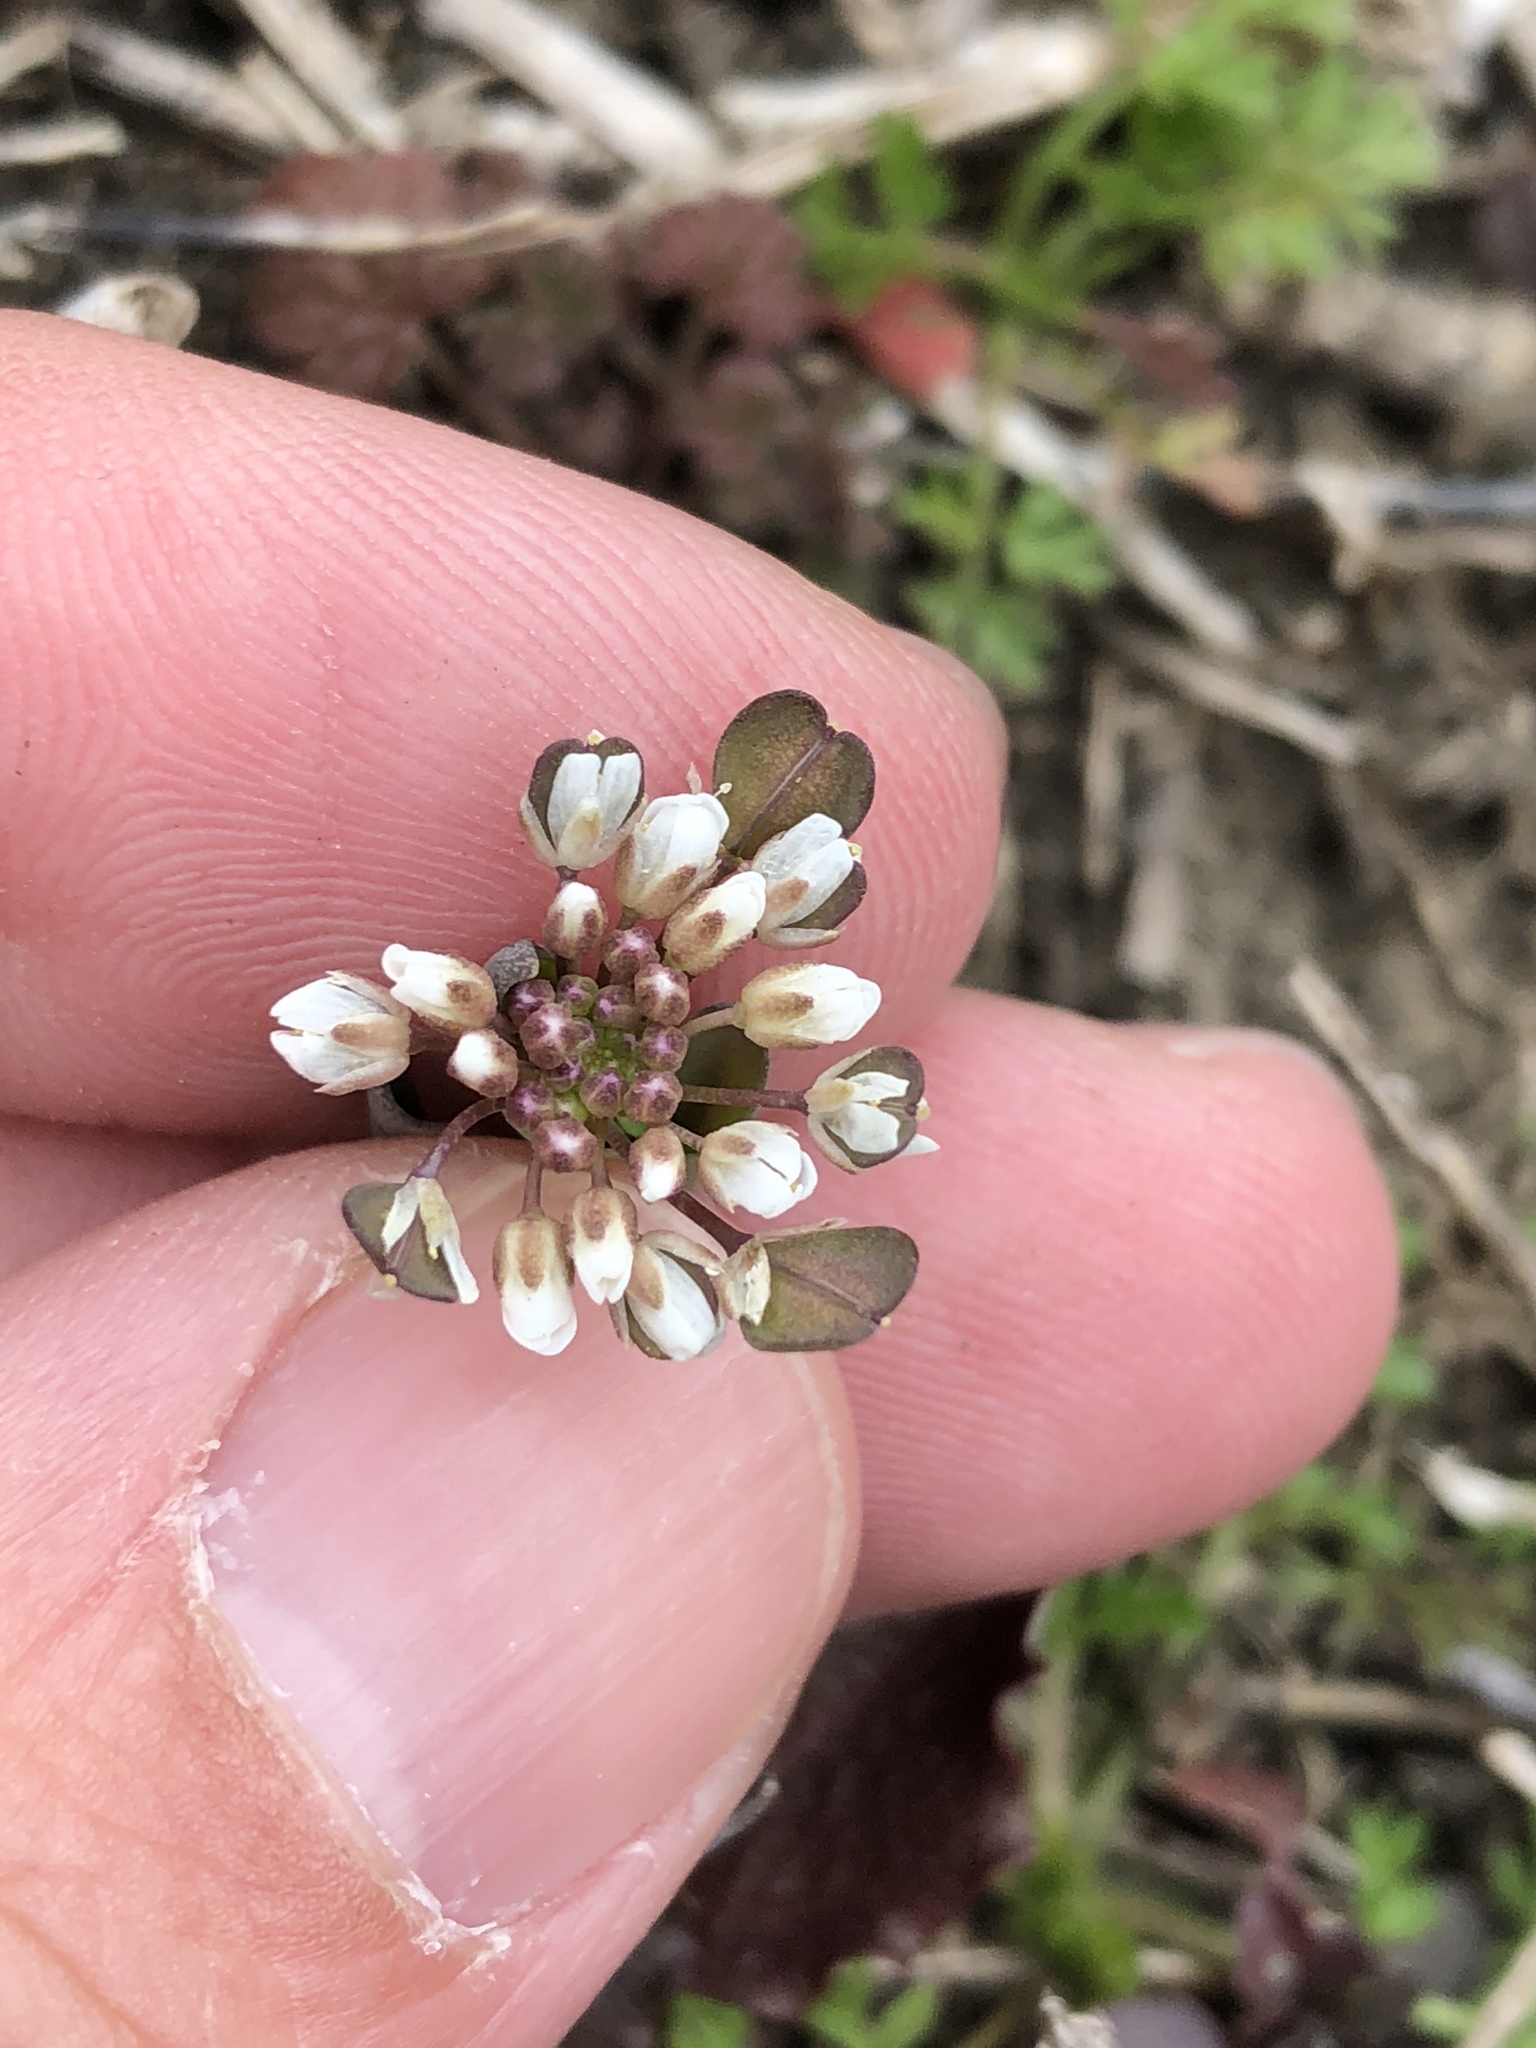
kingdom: Plantae
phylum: Tracheophyta
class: Magnoliopsida
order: Brassicales
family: Brassicaceae
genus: Noccaea
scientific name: Noccaea perfoliata
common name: Perfoliate pennycress
